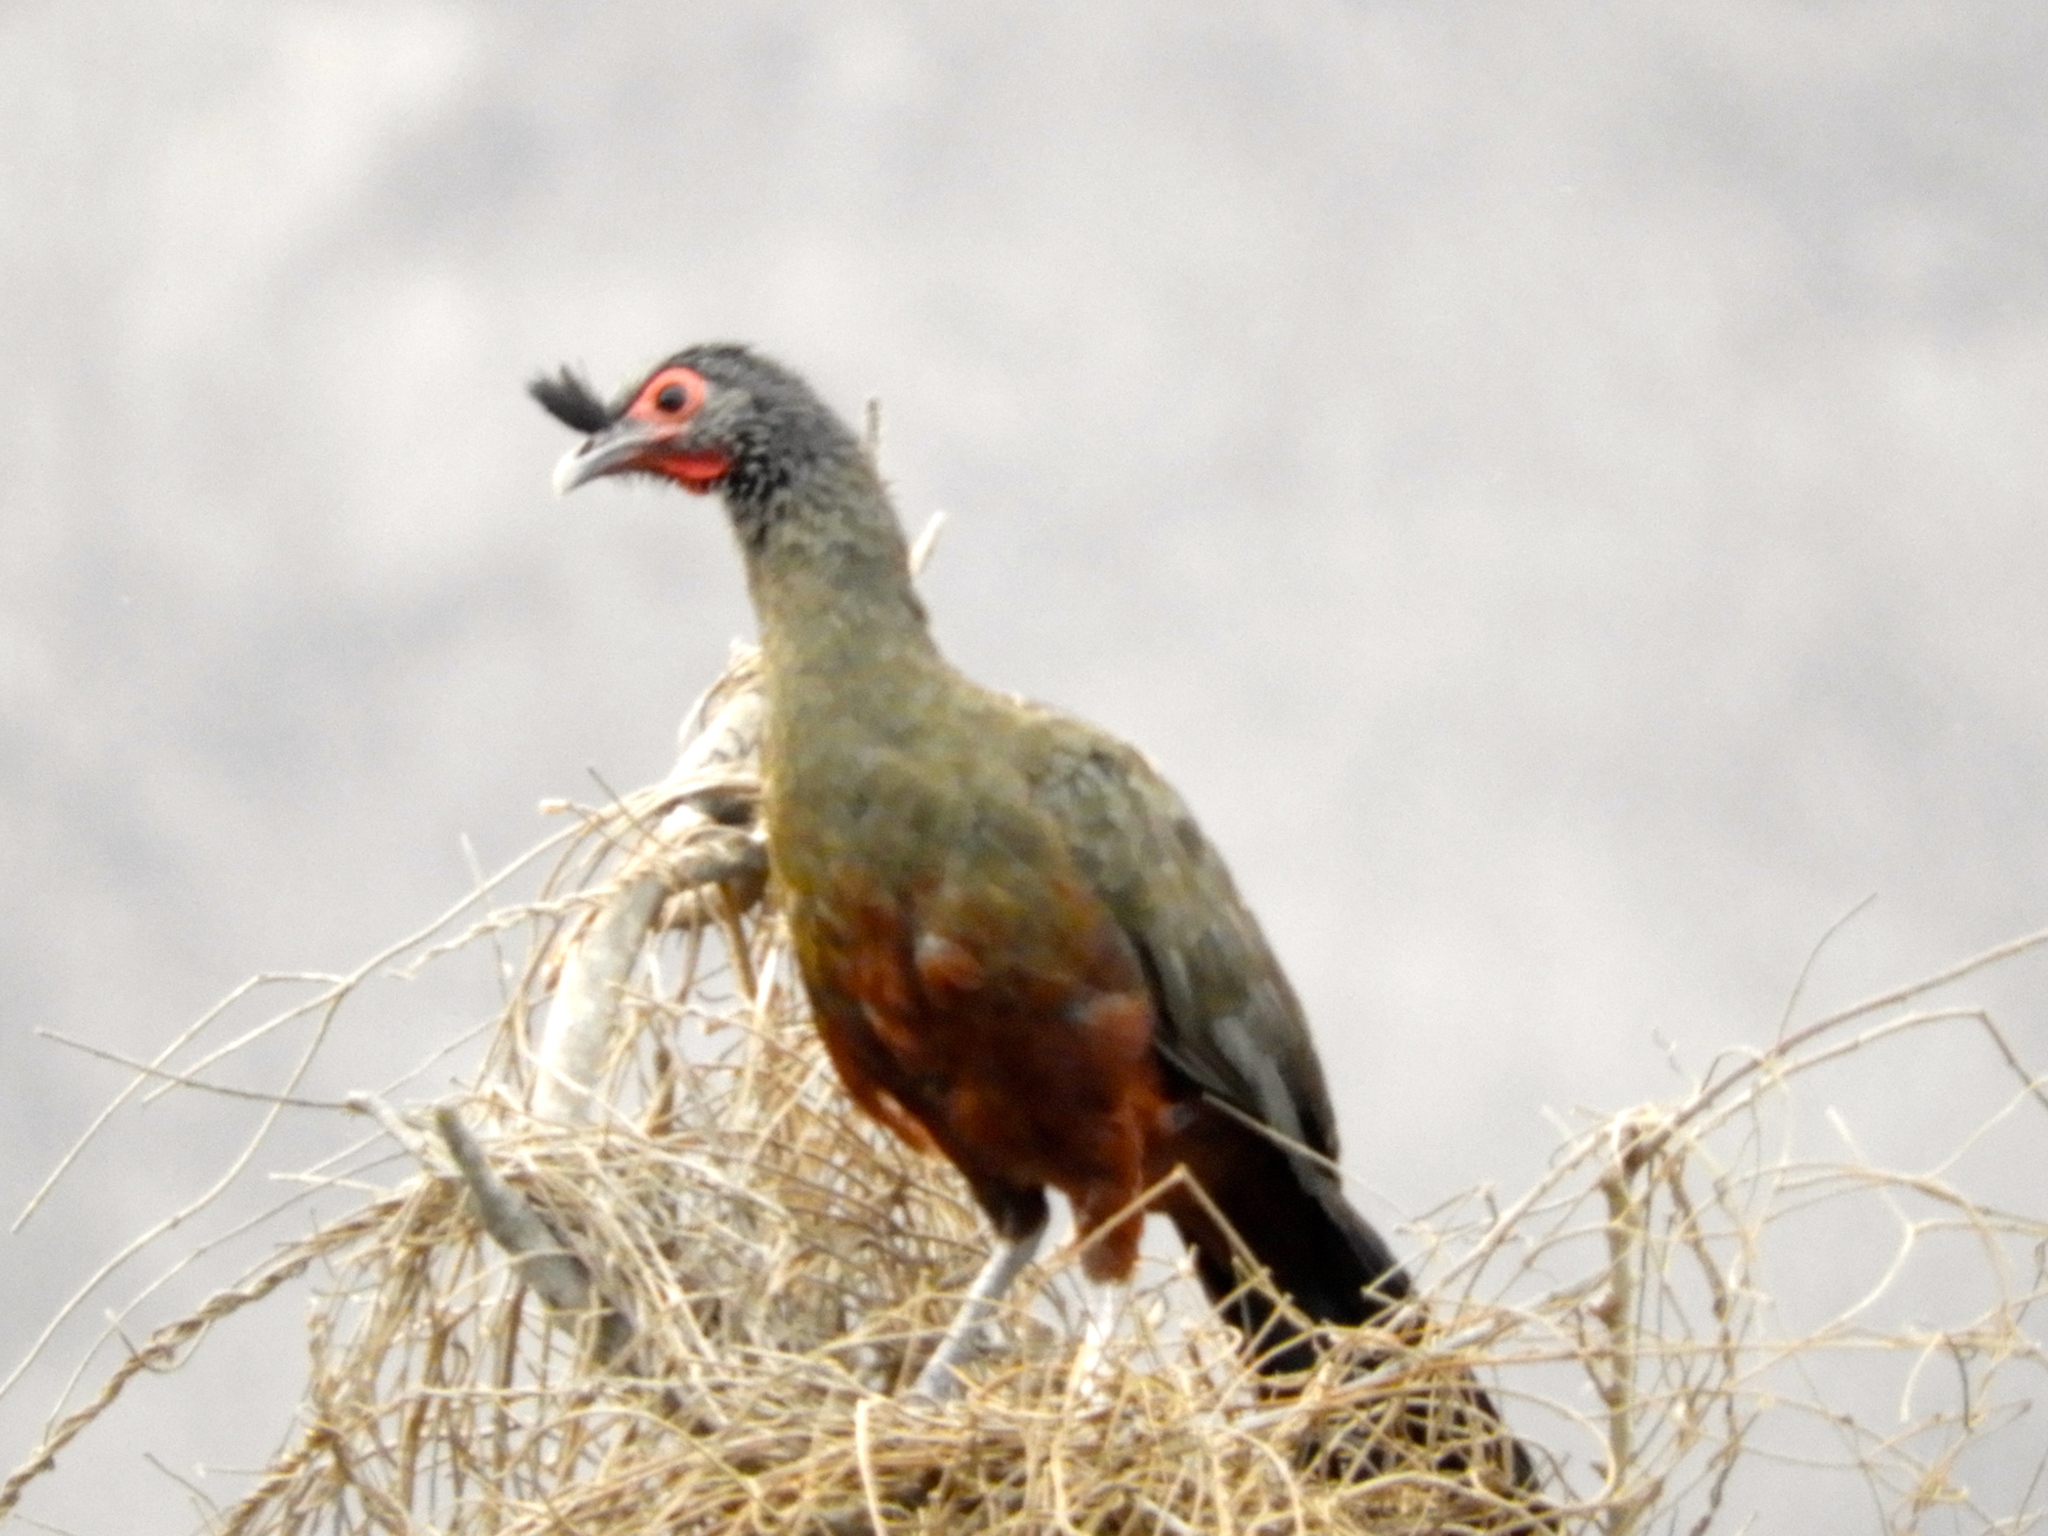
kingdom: Animalia
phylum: Chordata
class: Aves
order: Galliformes
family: Cracidae
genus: Ortalis
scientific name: Ortalis wagleri
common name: Rufous-bellied chachalaca
